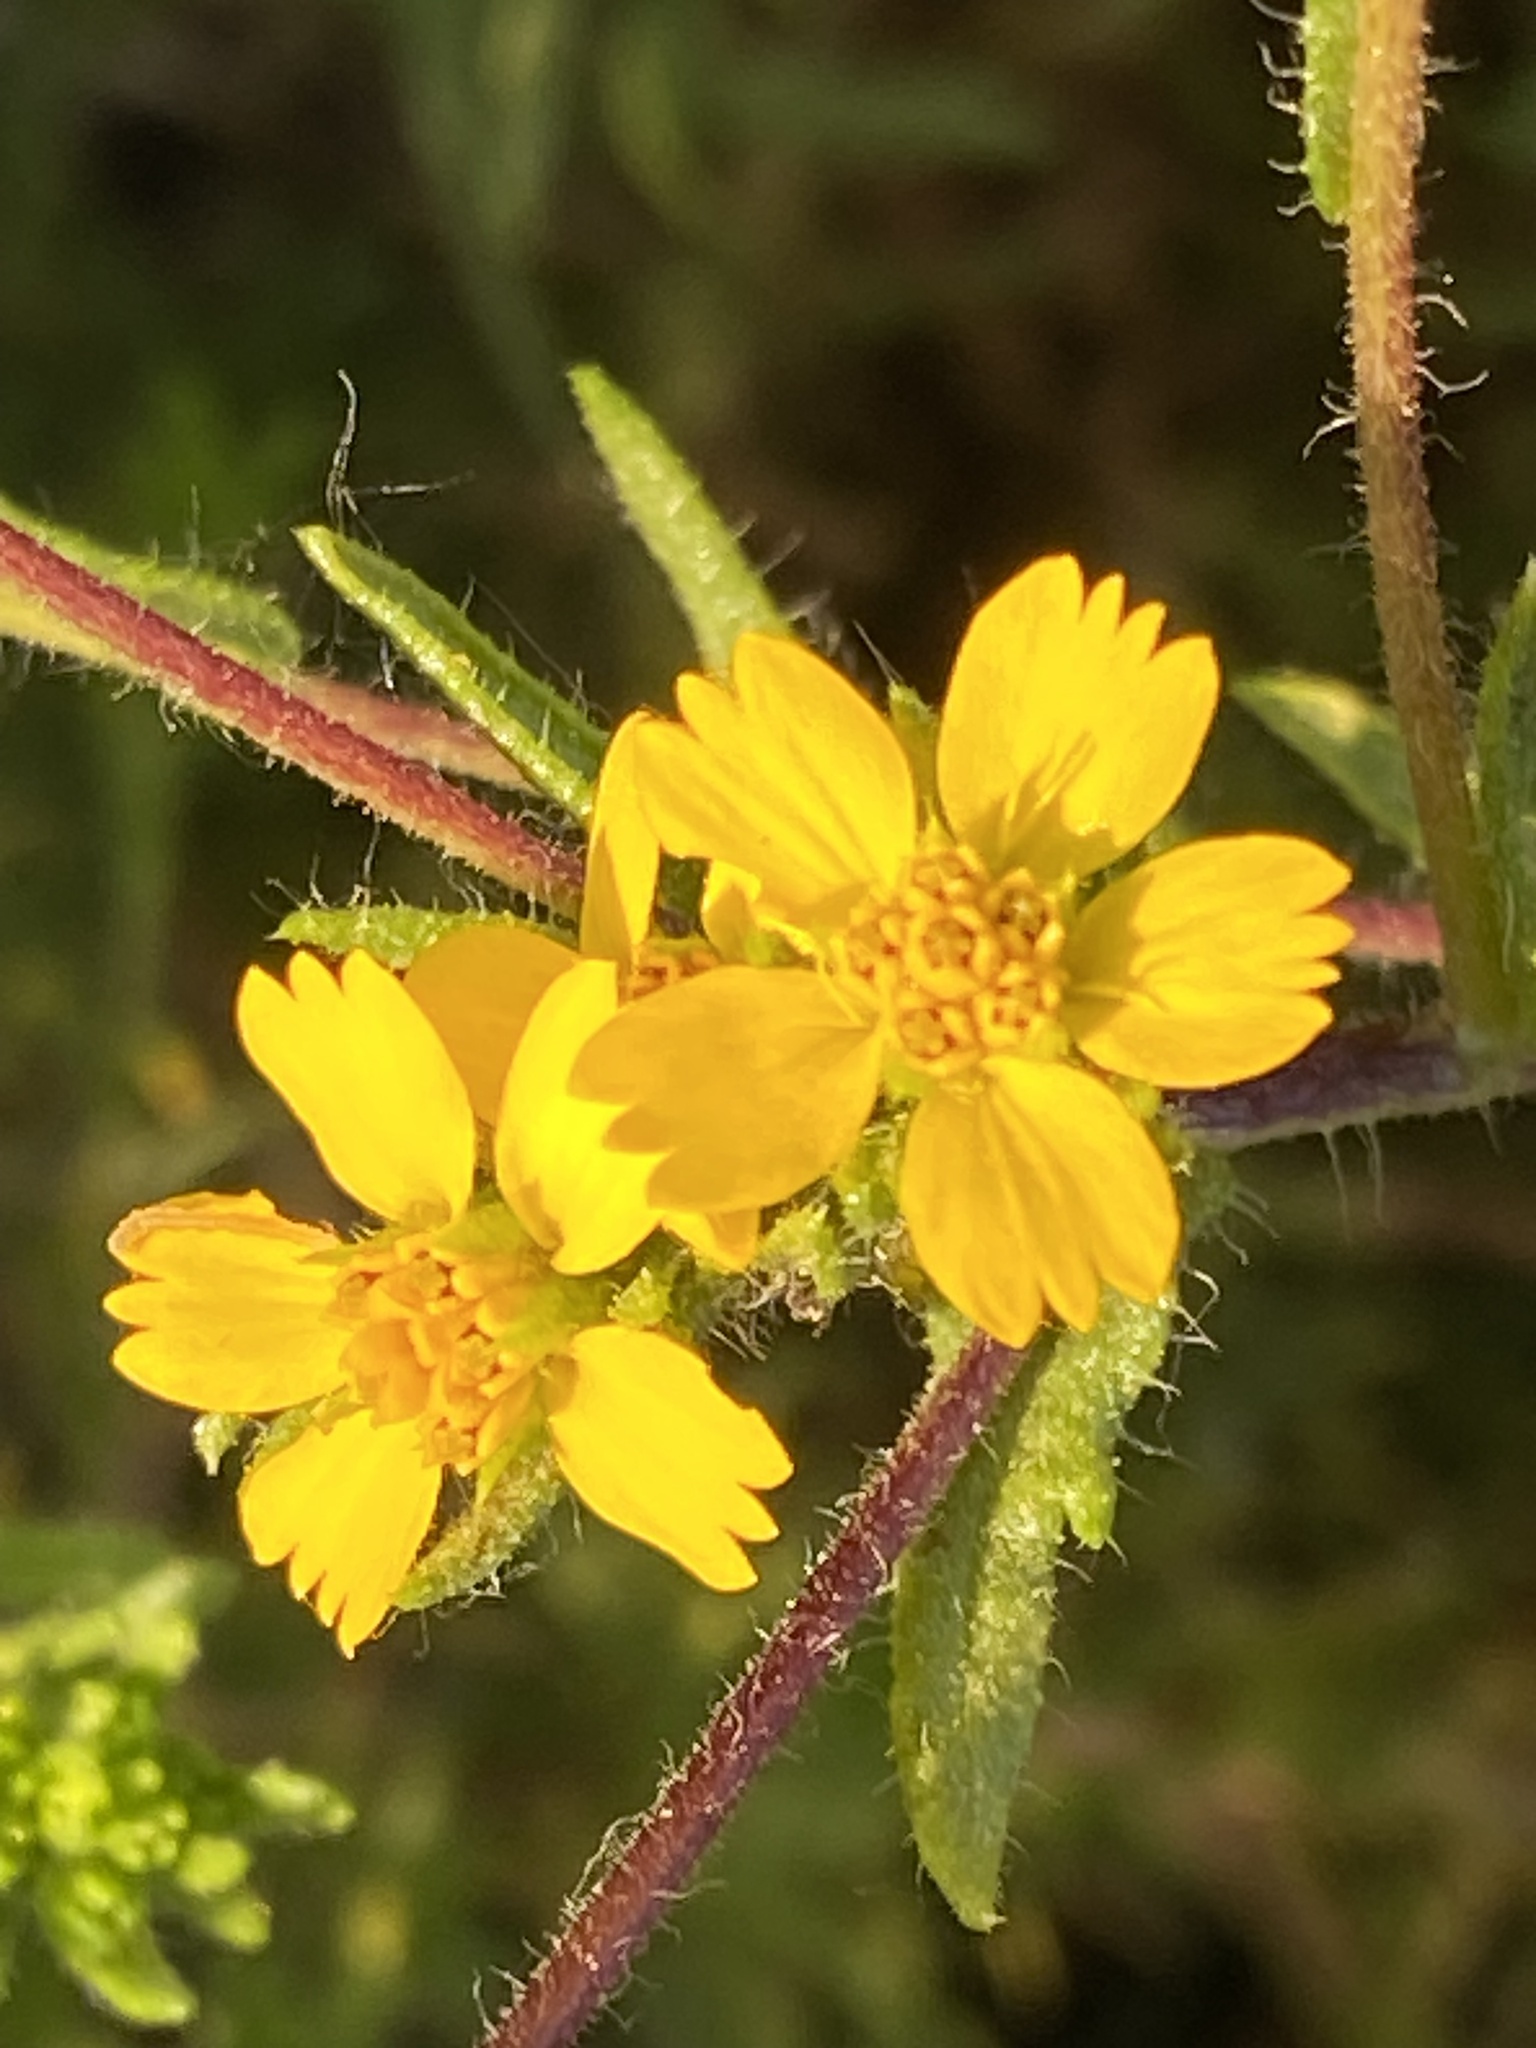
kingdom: Plantae
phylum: Tracheophyta
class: Magnoliopsida
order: Asterales
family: Asteraceae
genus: Deinandra
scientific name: Deinandra fasciculata
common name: Clustered tarweed
